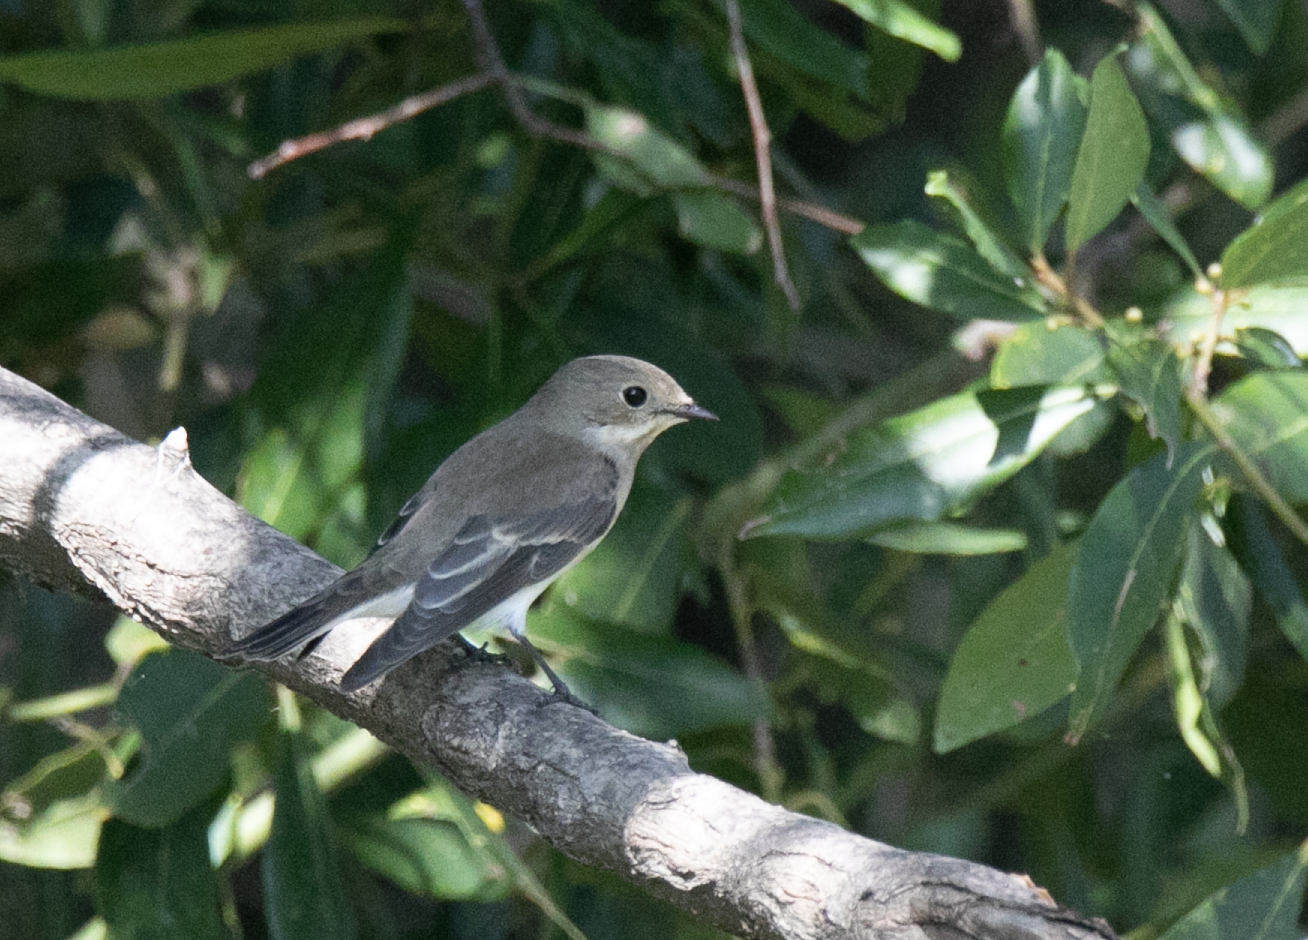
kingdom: Animalia
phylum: Chordata
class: Aves
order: Passeriformes
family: Muscicapidae
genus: Ficedula
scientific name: Ficedula hypoleuca
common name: European pied flycatcher
